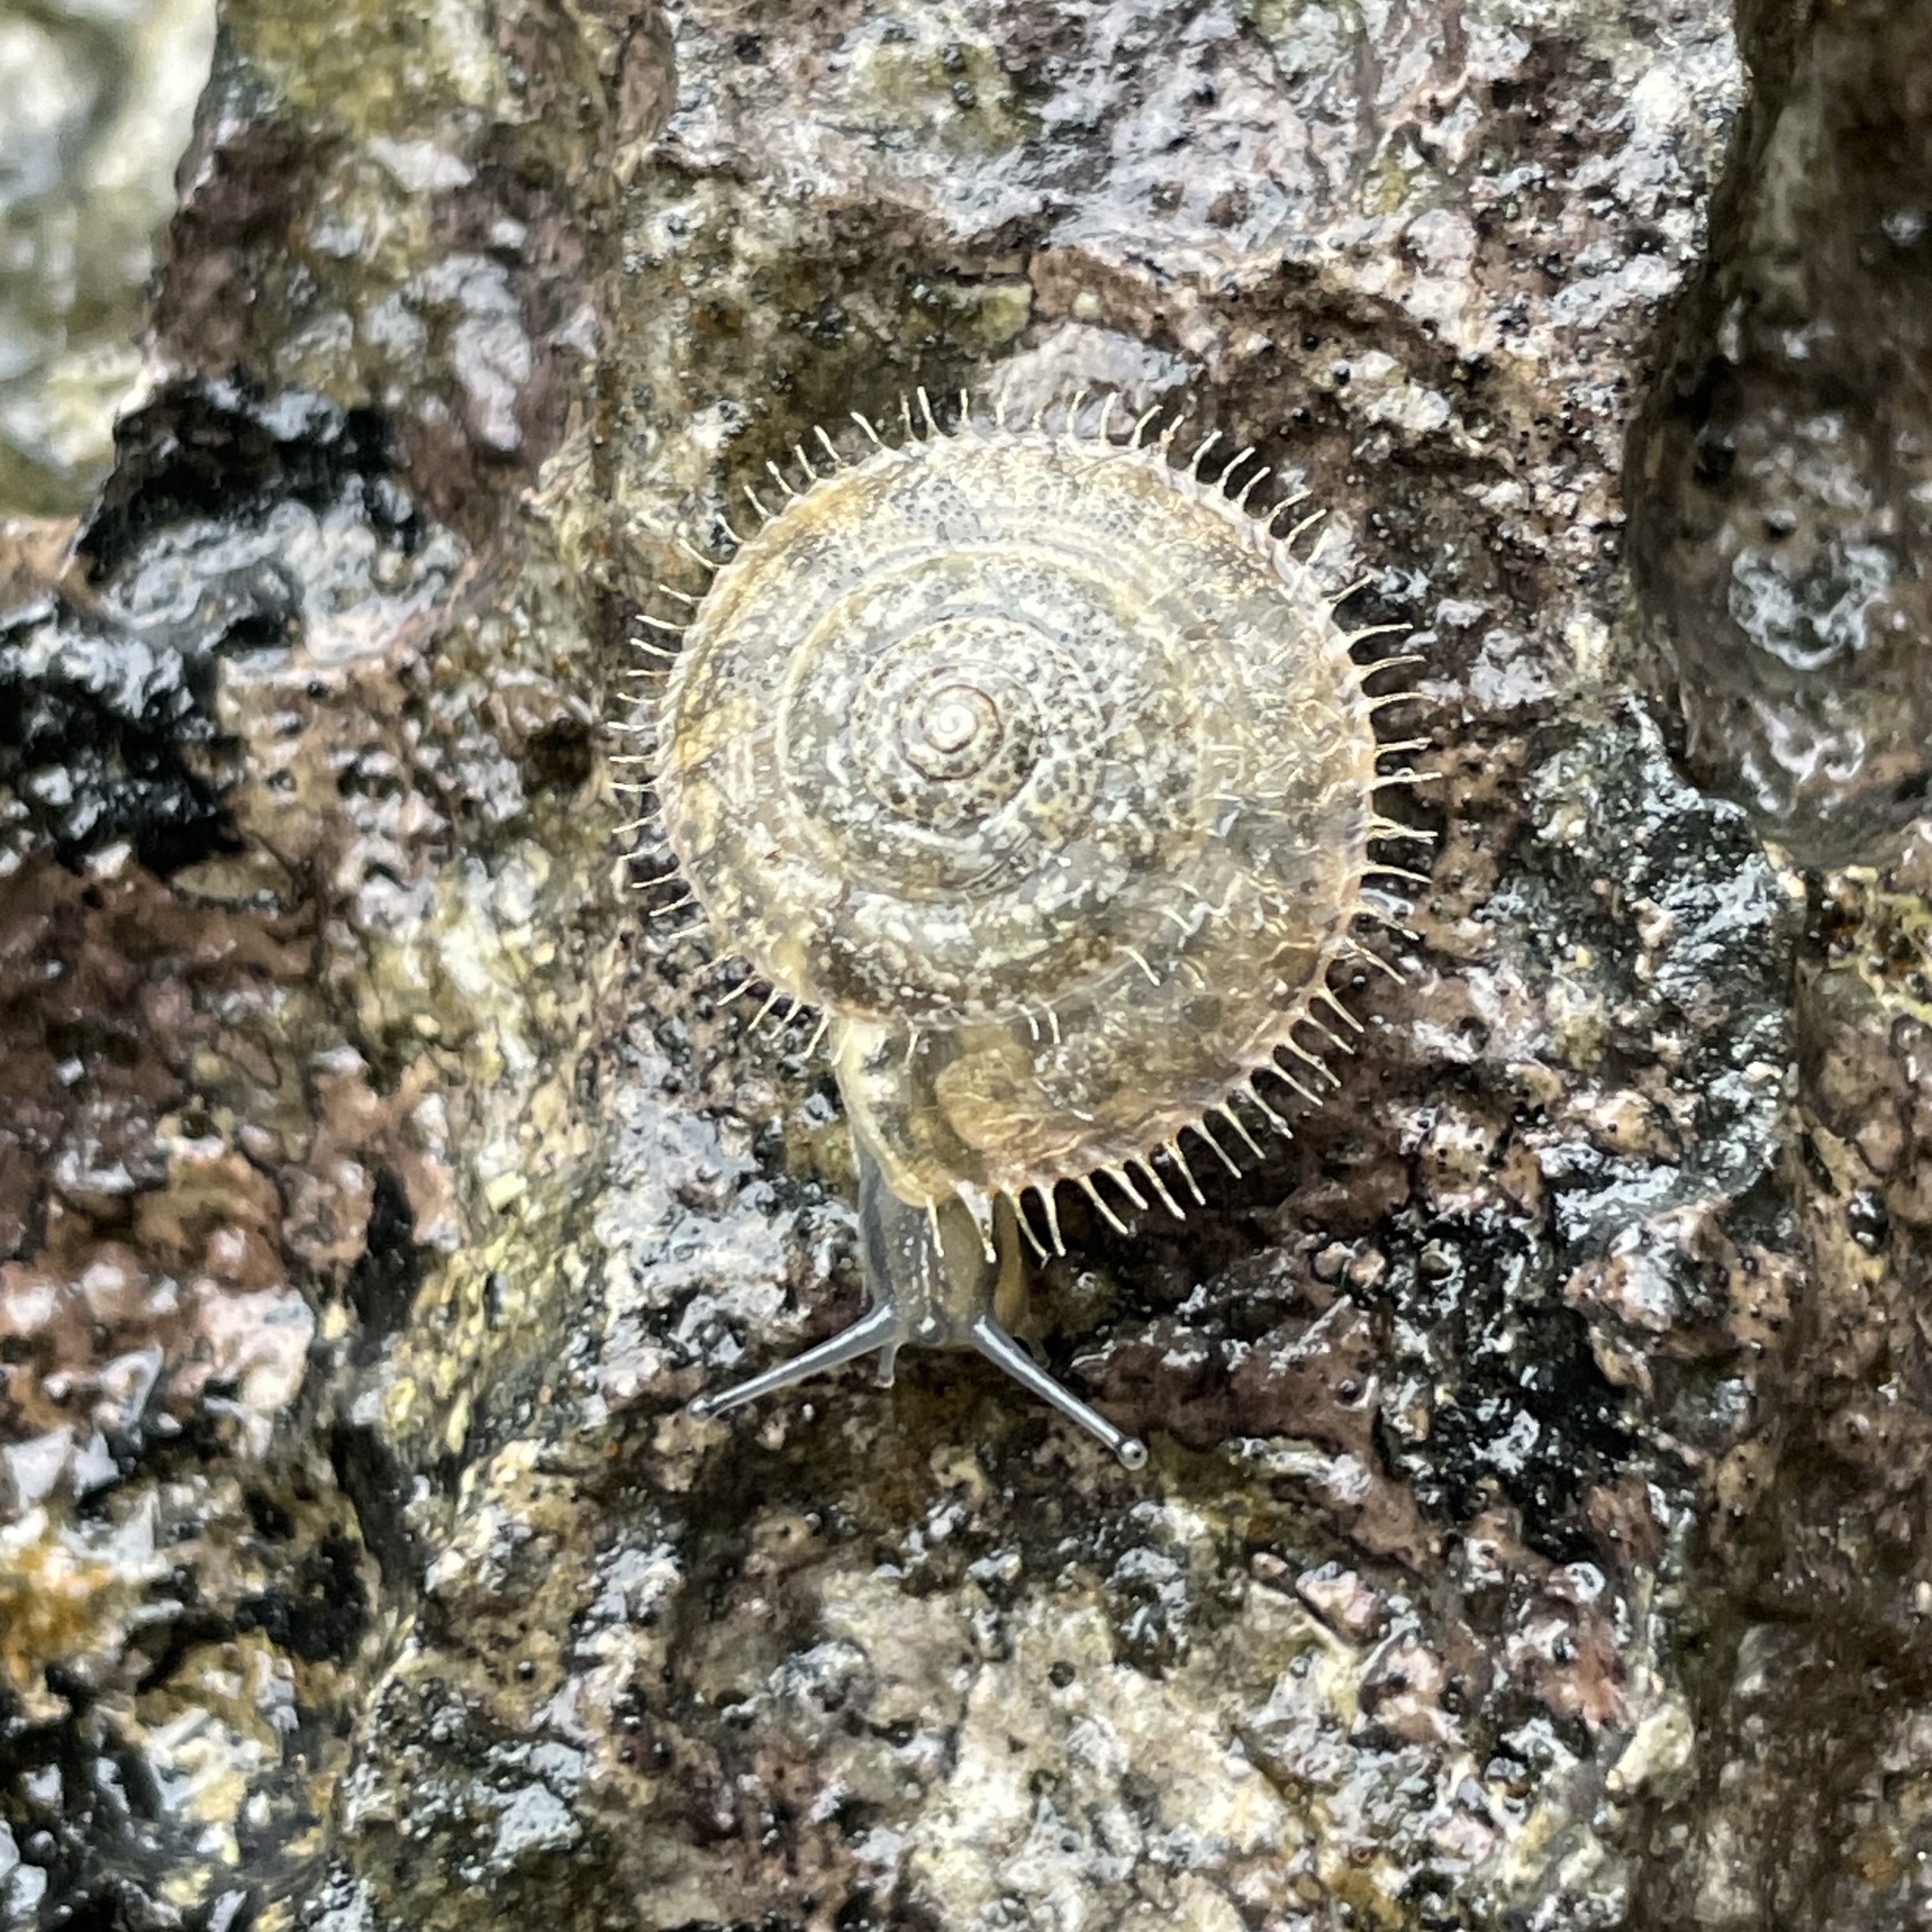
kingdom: Animalia
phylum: Mollusca
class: Gastropoda
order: Stylommatophora
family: Camaenidae
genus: Plectotropis
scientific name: Plectotropis elegantissima
